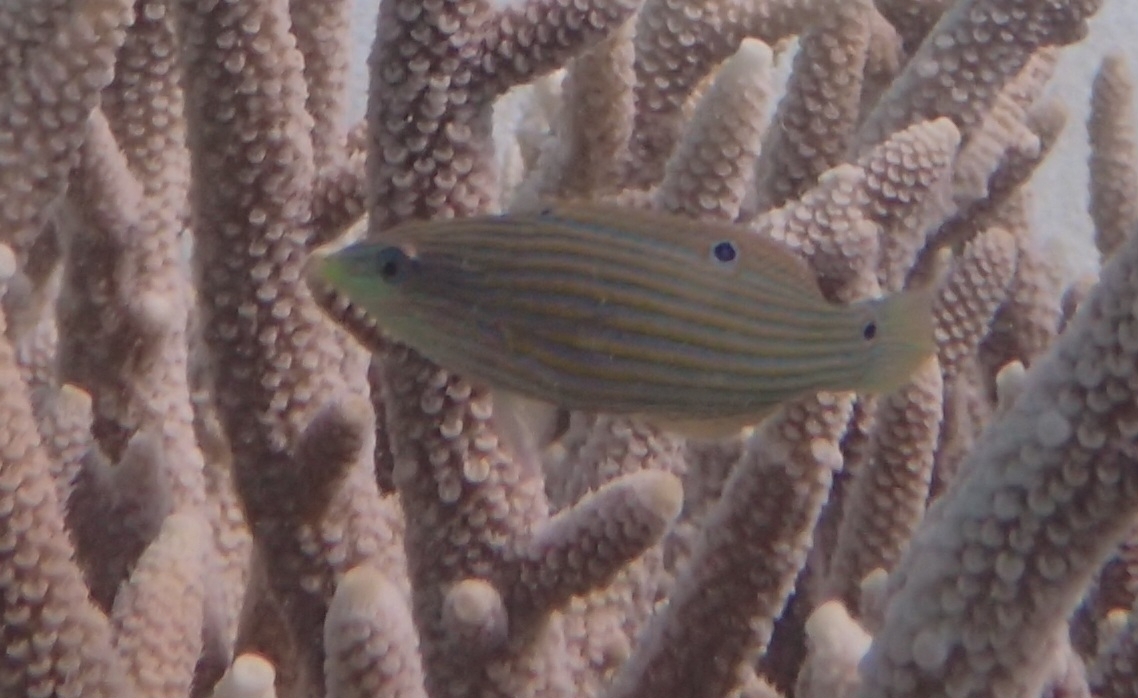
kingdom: Animalia
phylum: Chordata
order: Perciformes
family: Labridae
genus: Halichoeres
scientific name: Halichoeres melanurus
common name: Hoeven's wrasse
